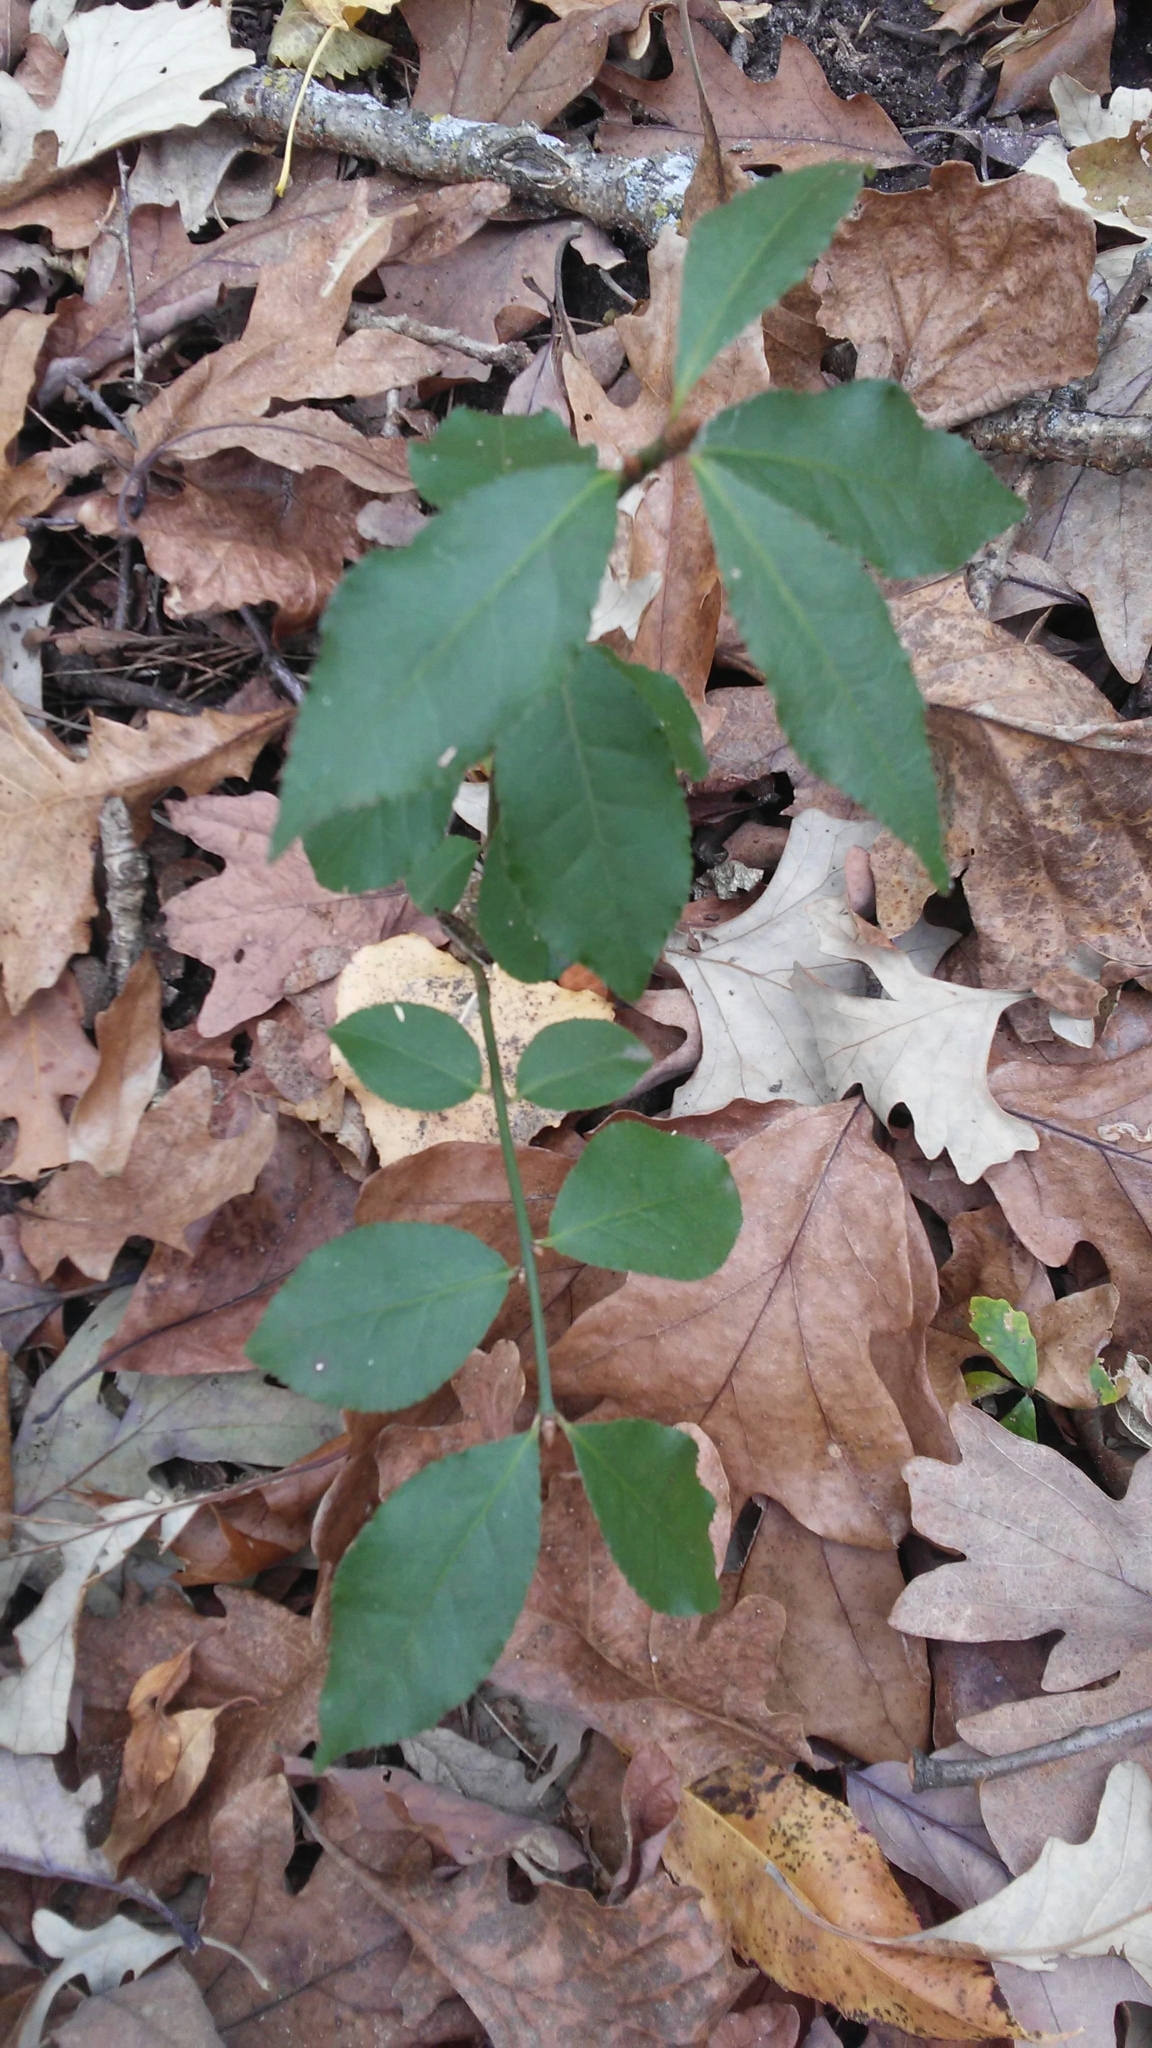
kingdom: Plantae
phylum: Tracheophyta
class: Magnoliopsida
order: Celastrales
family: Celastraceae
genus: Euonymus
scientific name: Euonymus alatus
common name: Winged euonymus
